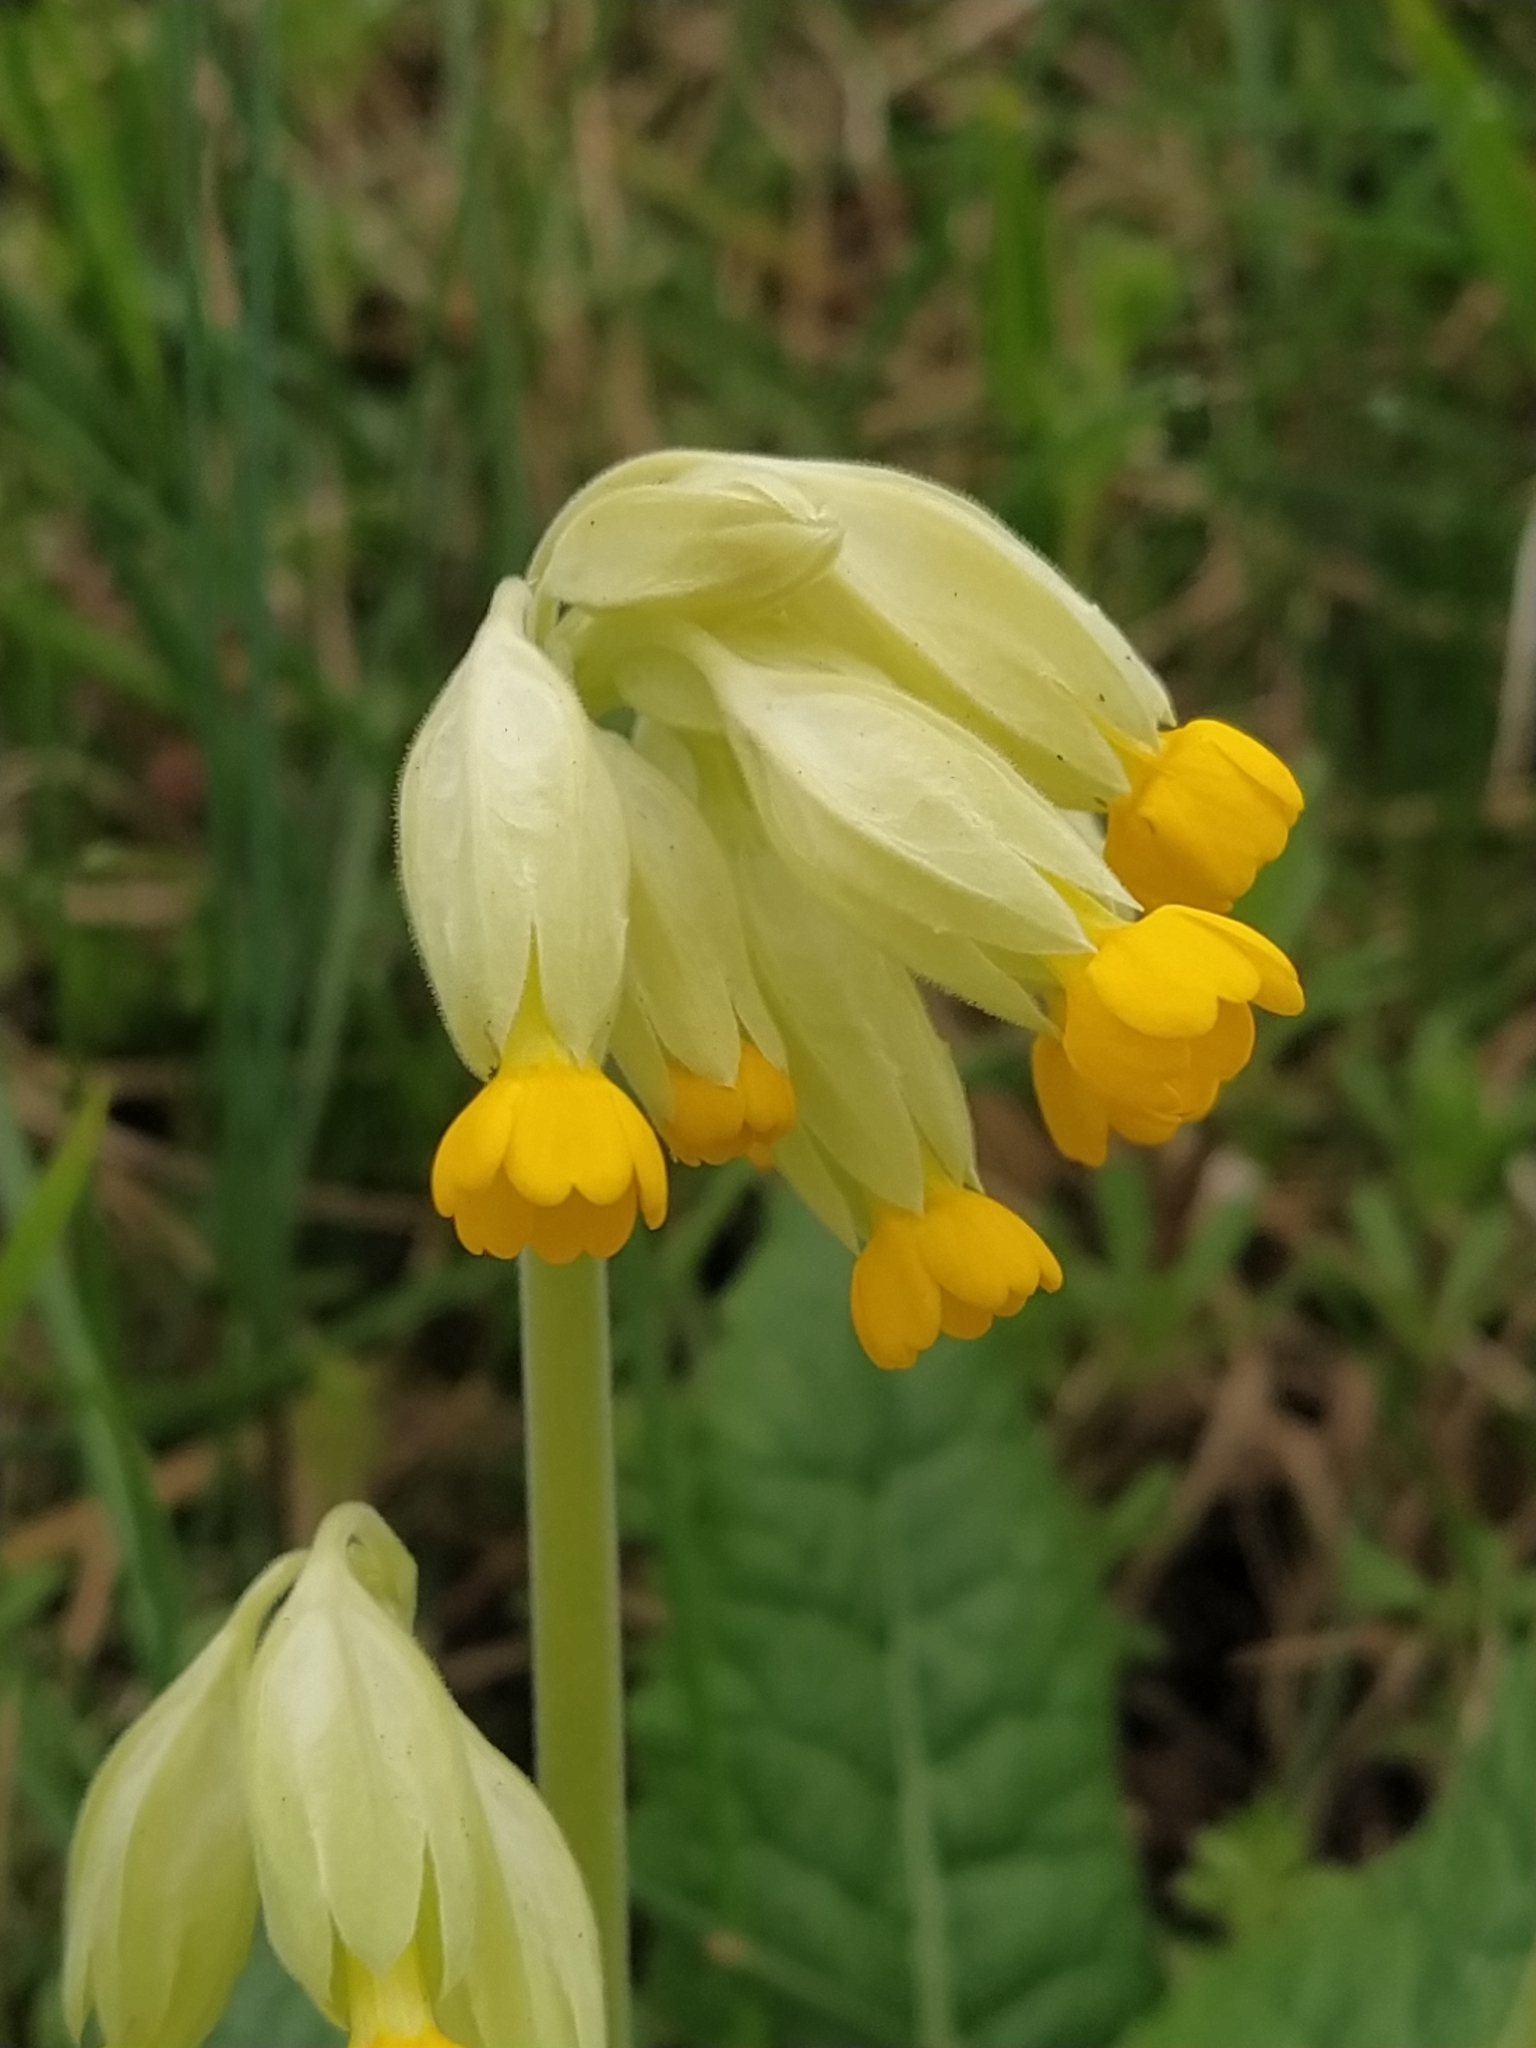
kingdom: Plantae
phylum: Tracheophyta
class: Magnoliopsida
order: Ericales
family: Primulaceae
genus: Primula
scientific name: Primula veris
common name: Cowslip
